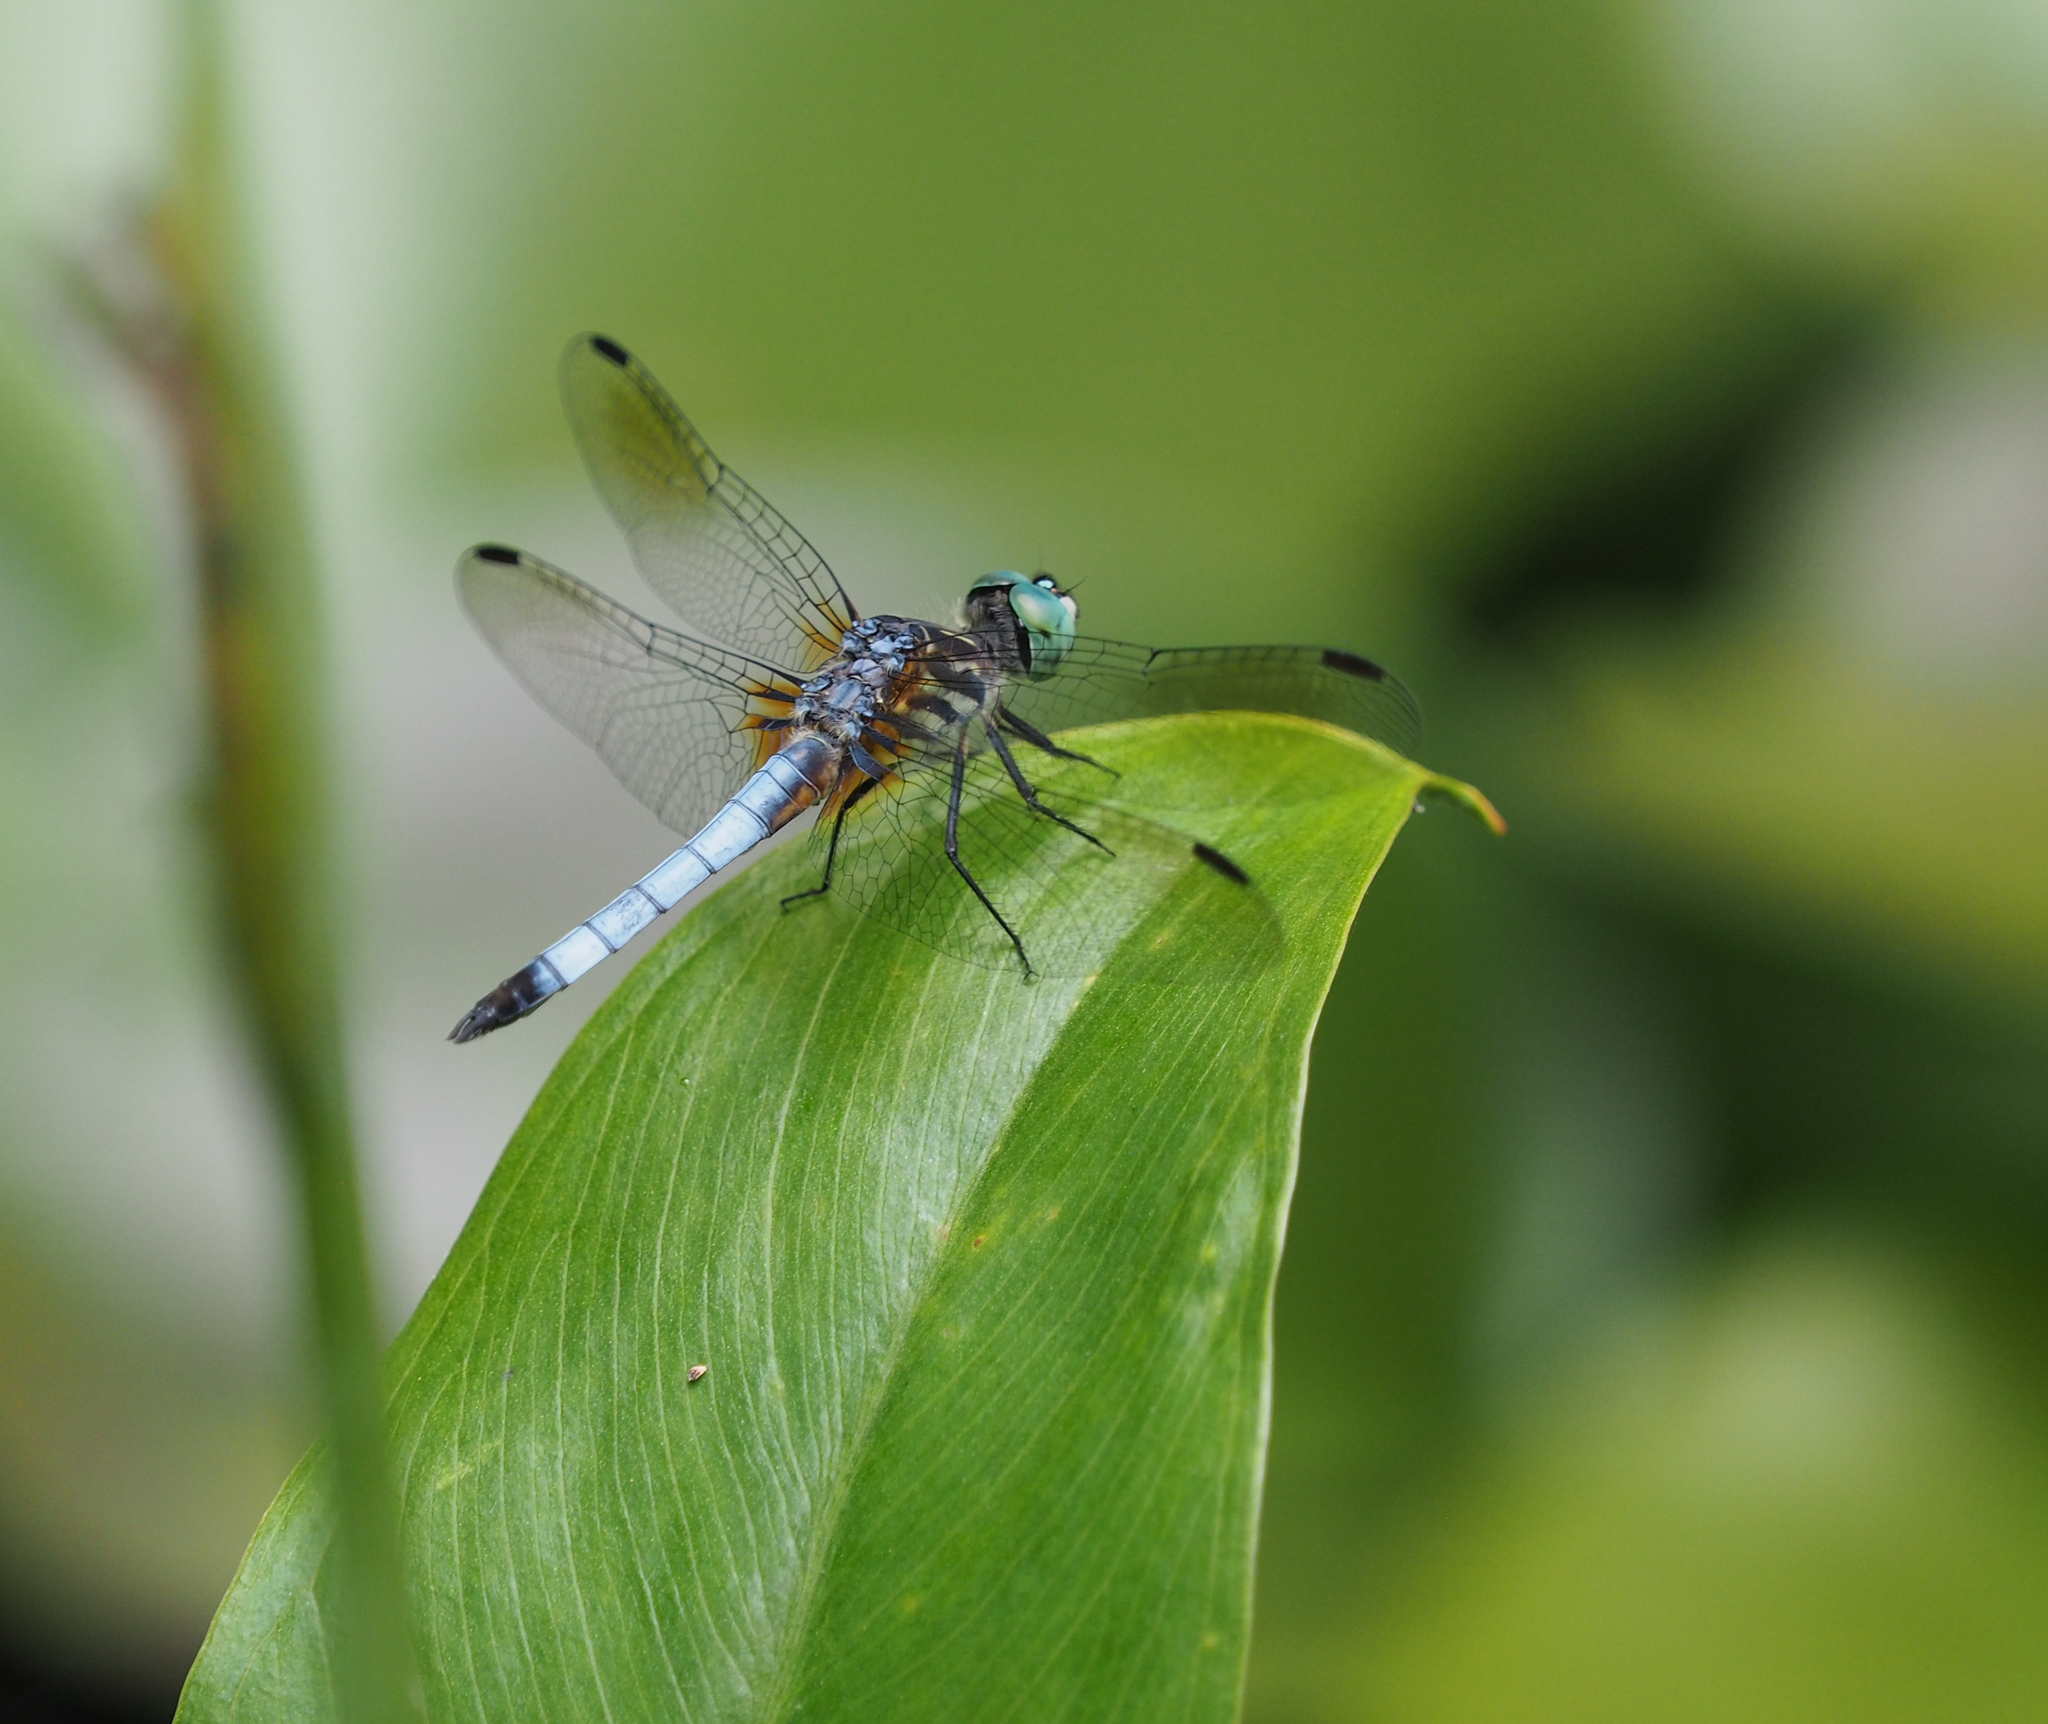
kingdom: Animalia
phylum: Arthropoda
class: Insecta
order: Odonata
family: Libellulidae
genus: Pachydiplax
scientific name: Pachydiplax longipennis
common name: Blue dasher
